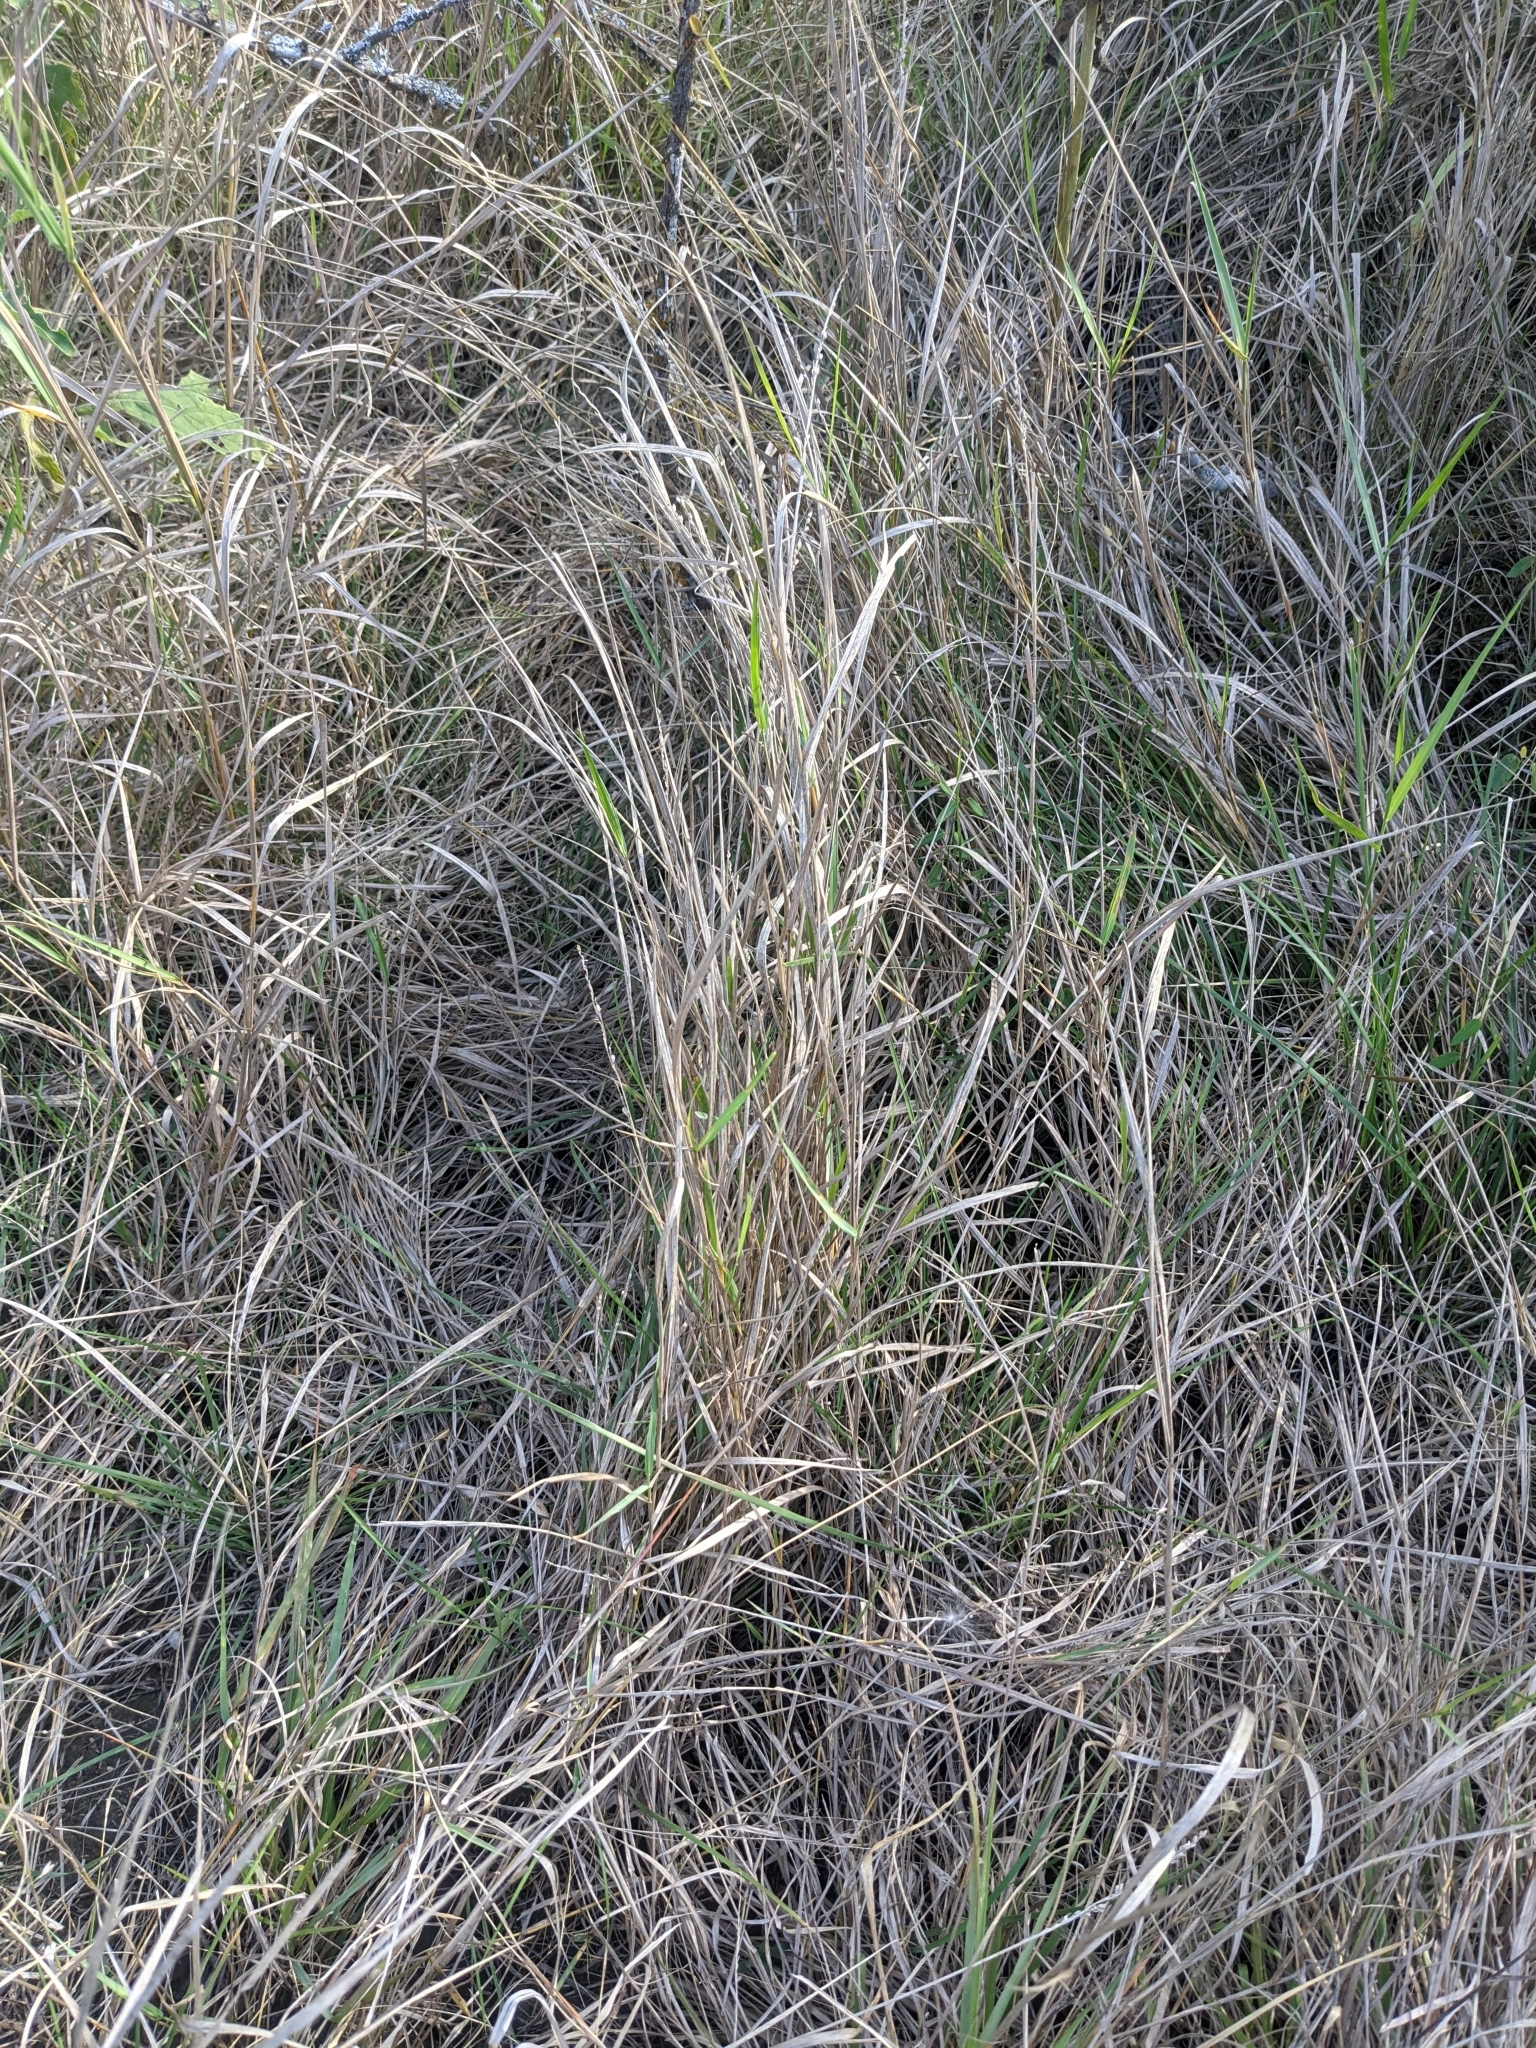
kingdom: Plantae
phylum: Tracheophyta
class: Liliopsida
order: Poales
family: Poaceae
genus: Hopia
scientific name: Hopia obtusa
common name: Vine-mesquite
